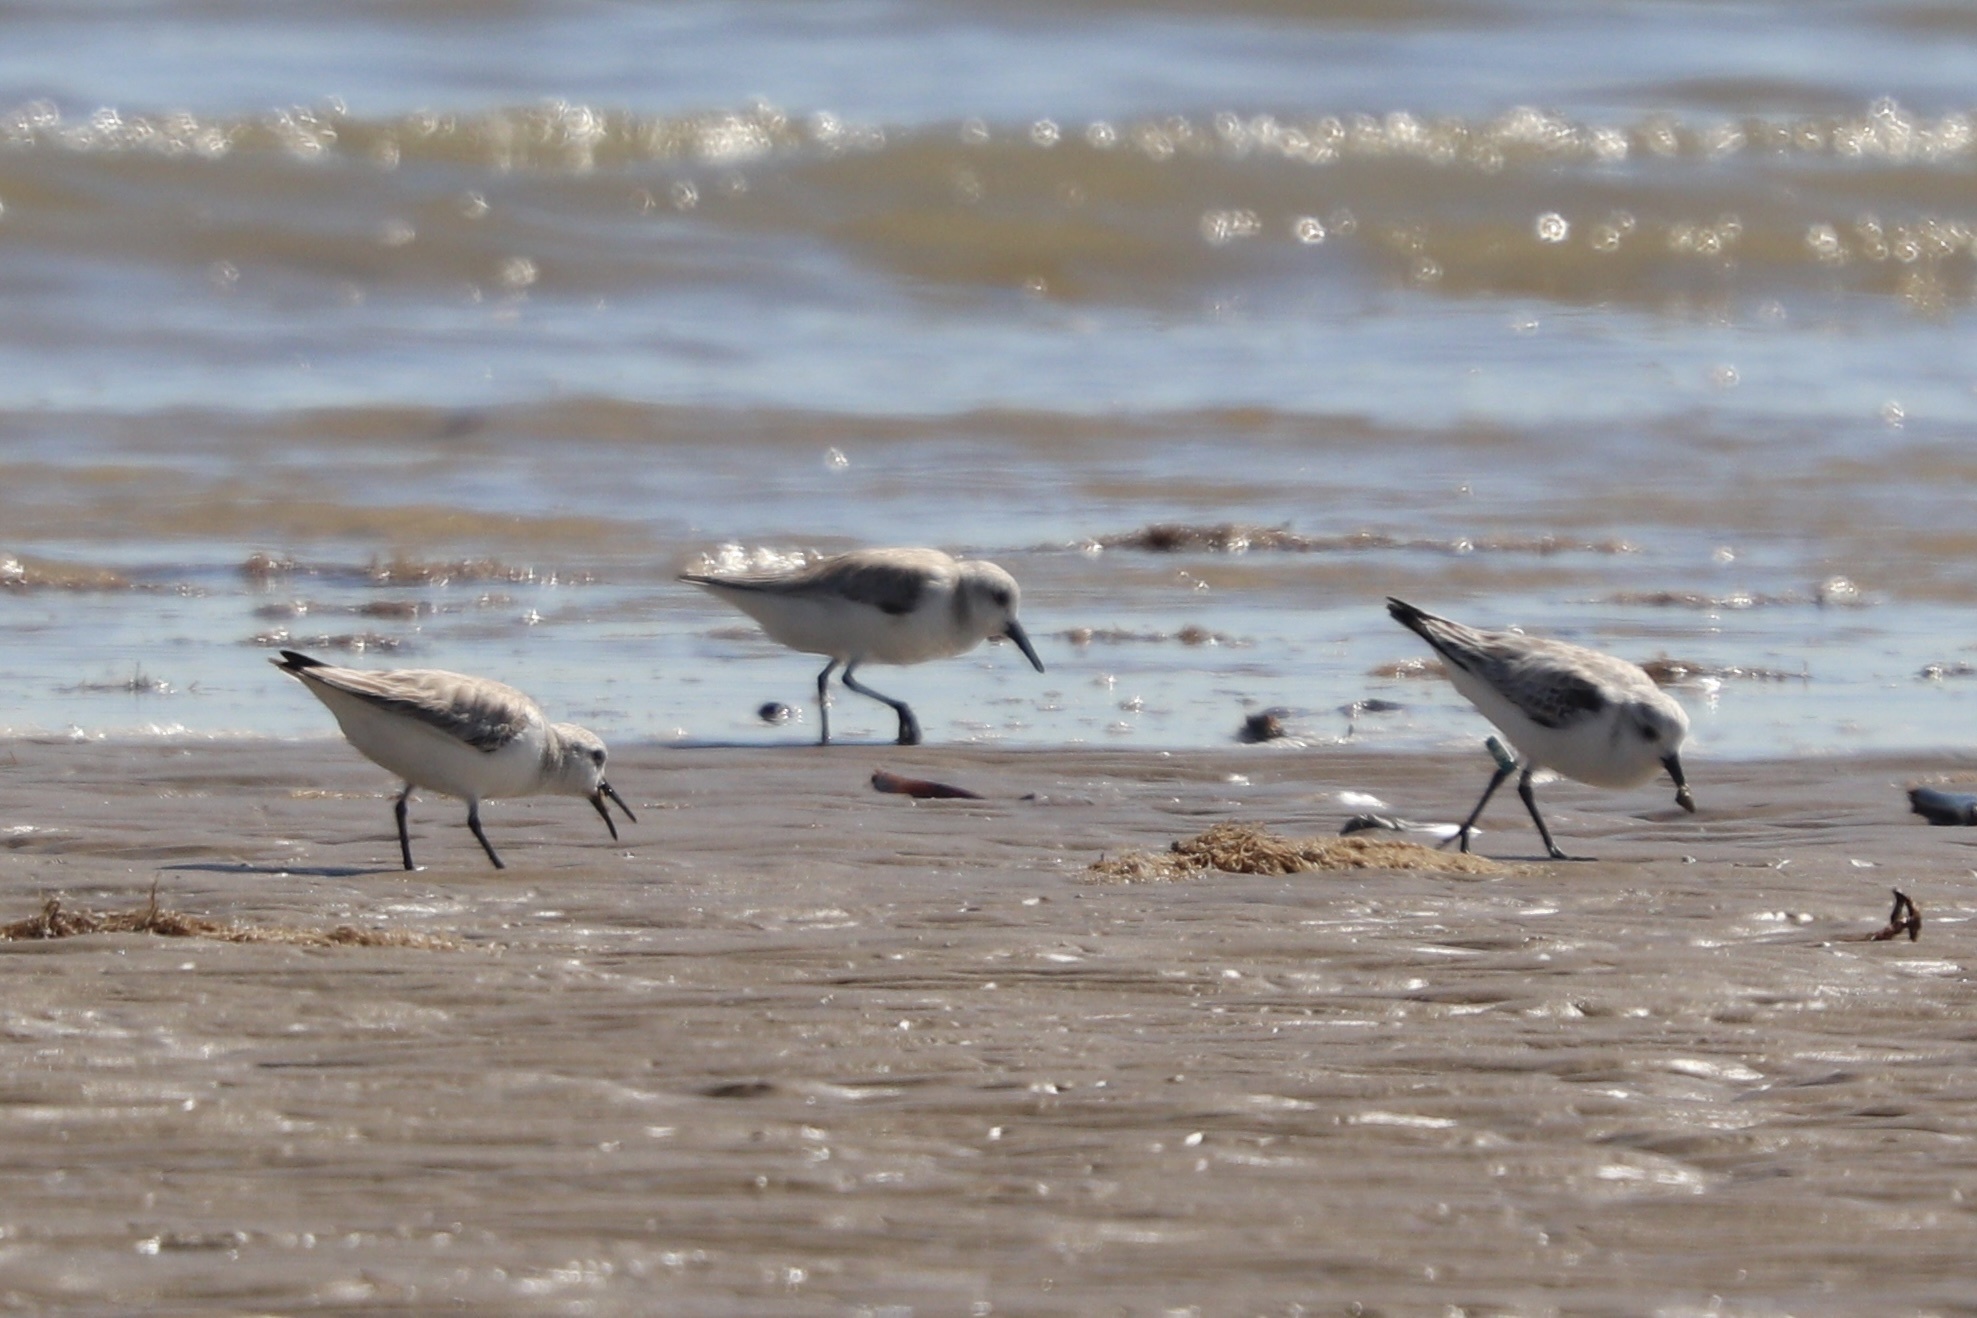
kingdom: Animalia
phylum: Chordata
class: Aves
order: Charadriiformes
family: Scolopacidae
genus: Calidris
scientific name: Calidris alba
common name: Sanderling
